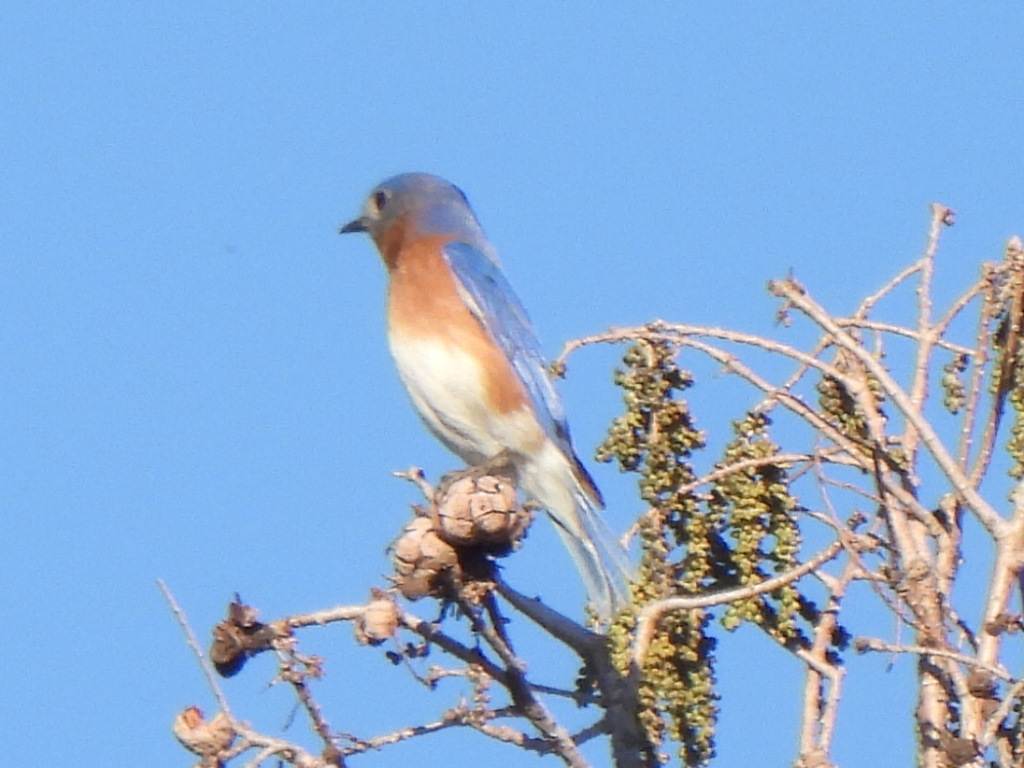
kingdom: Animalia
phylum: Chordata
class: Aves
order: Passeriformes
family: Turdidae
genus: Sialia
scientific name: Sialia sialis
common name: Eastern bluebird
